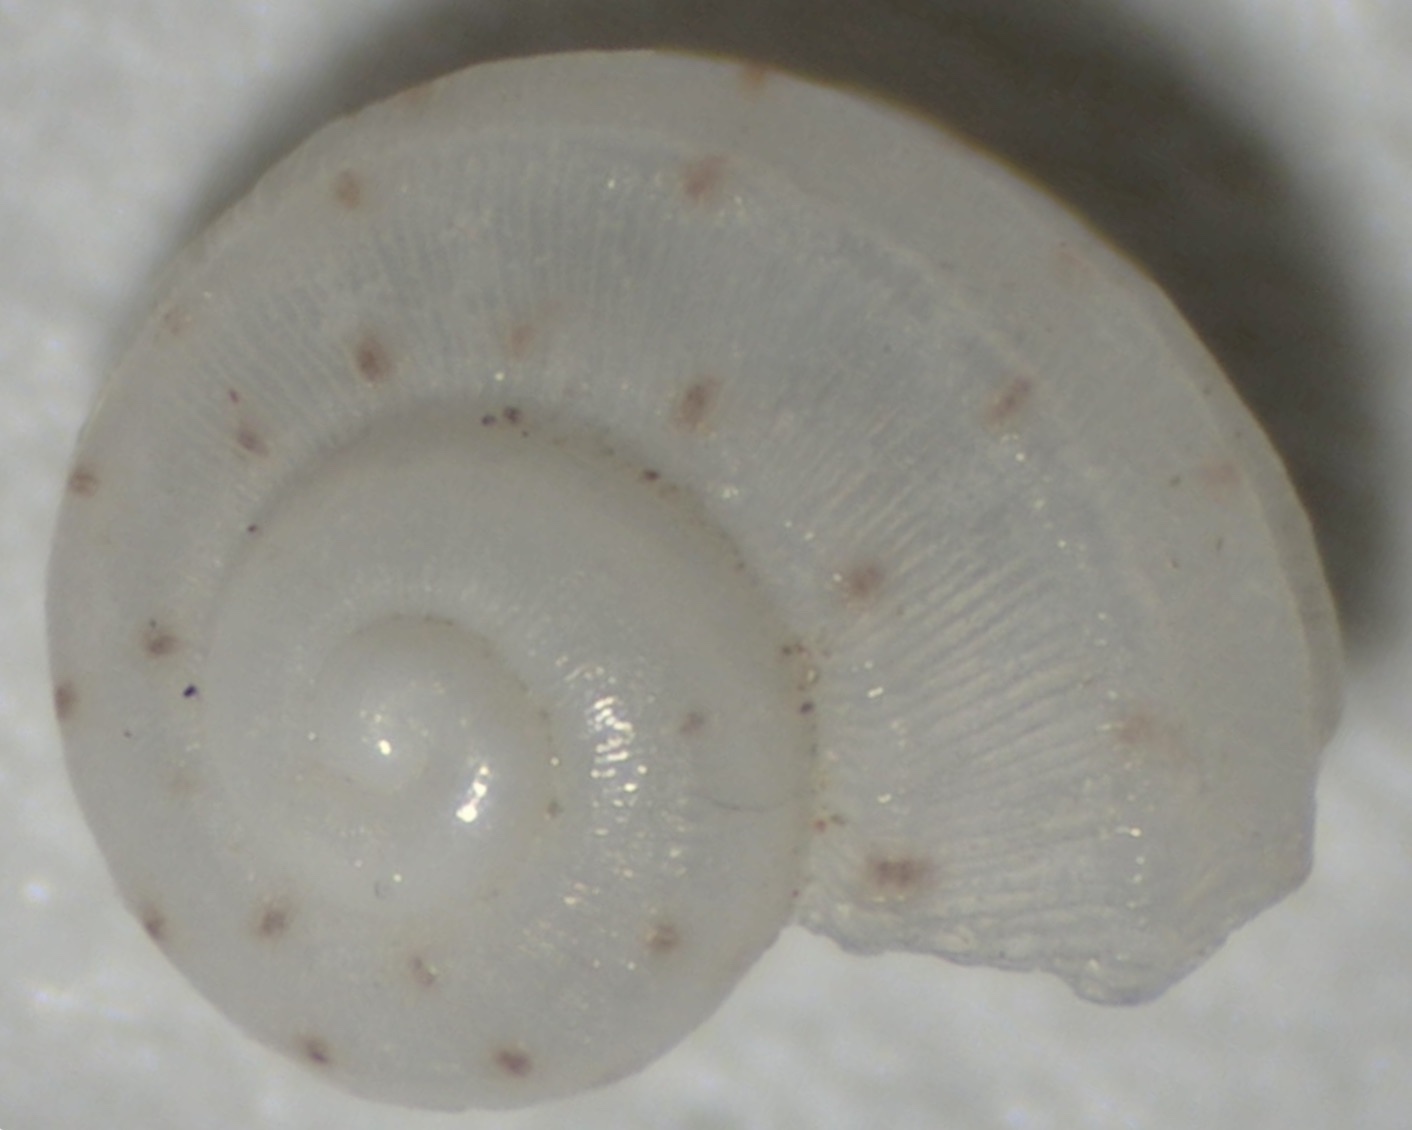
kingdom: Animalia
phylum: Mollusca
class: Gastropoda
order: Trochida
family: Areneidae
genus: Arene
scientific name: Arene tricarinata
